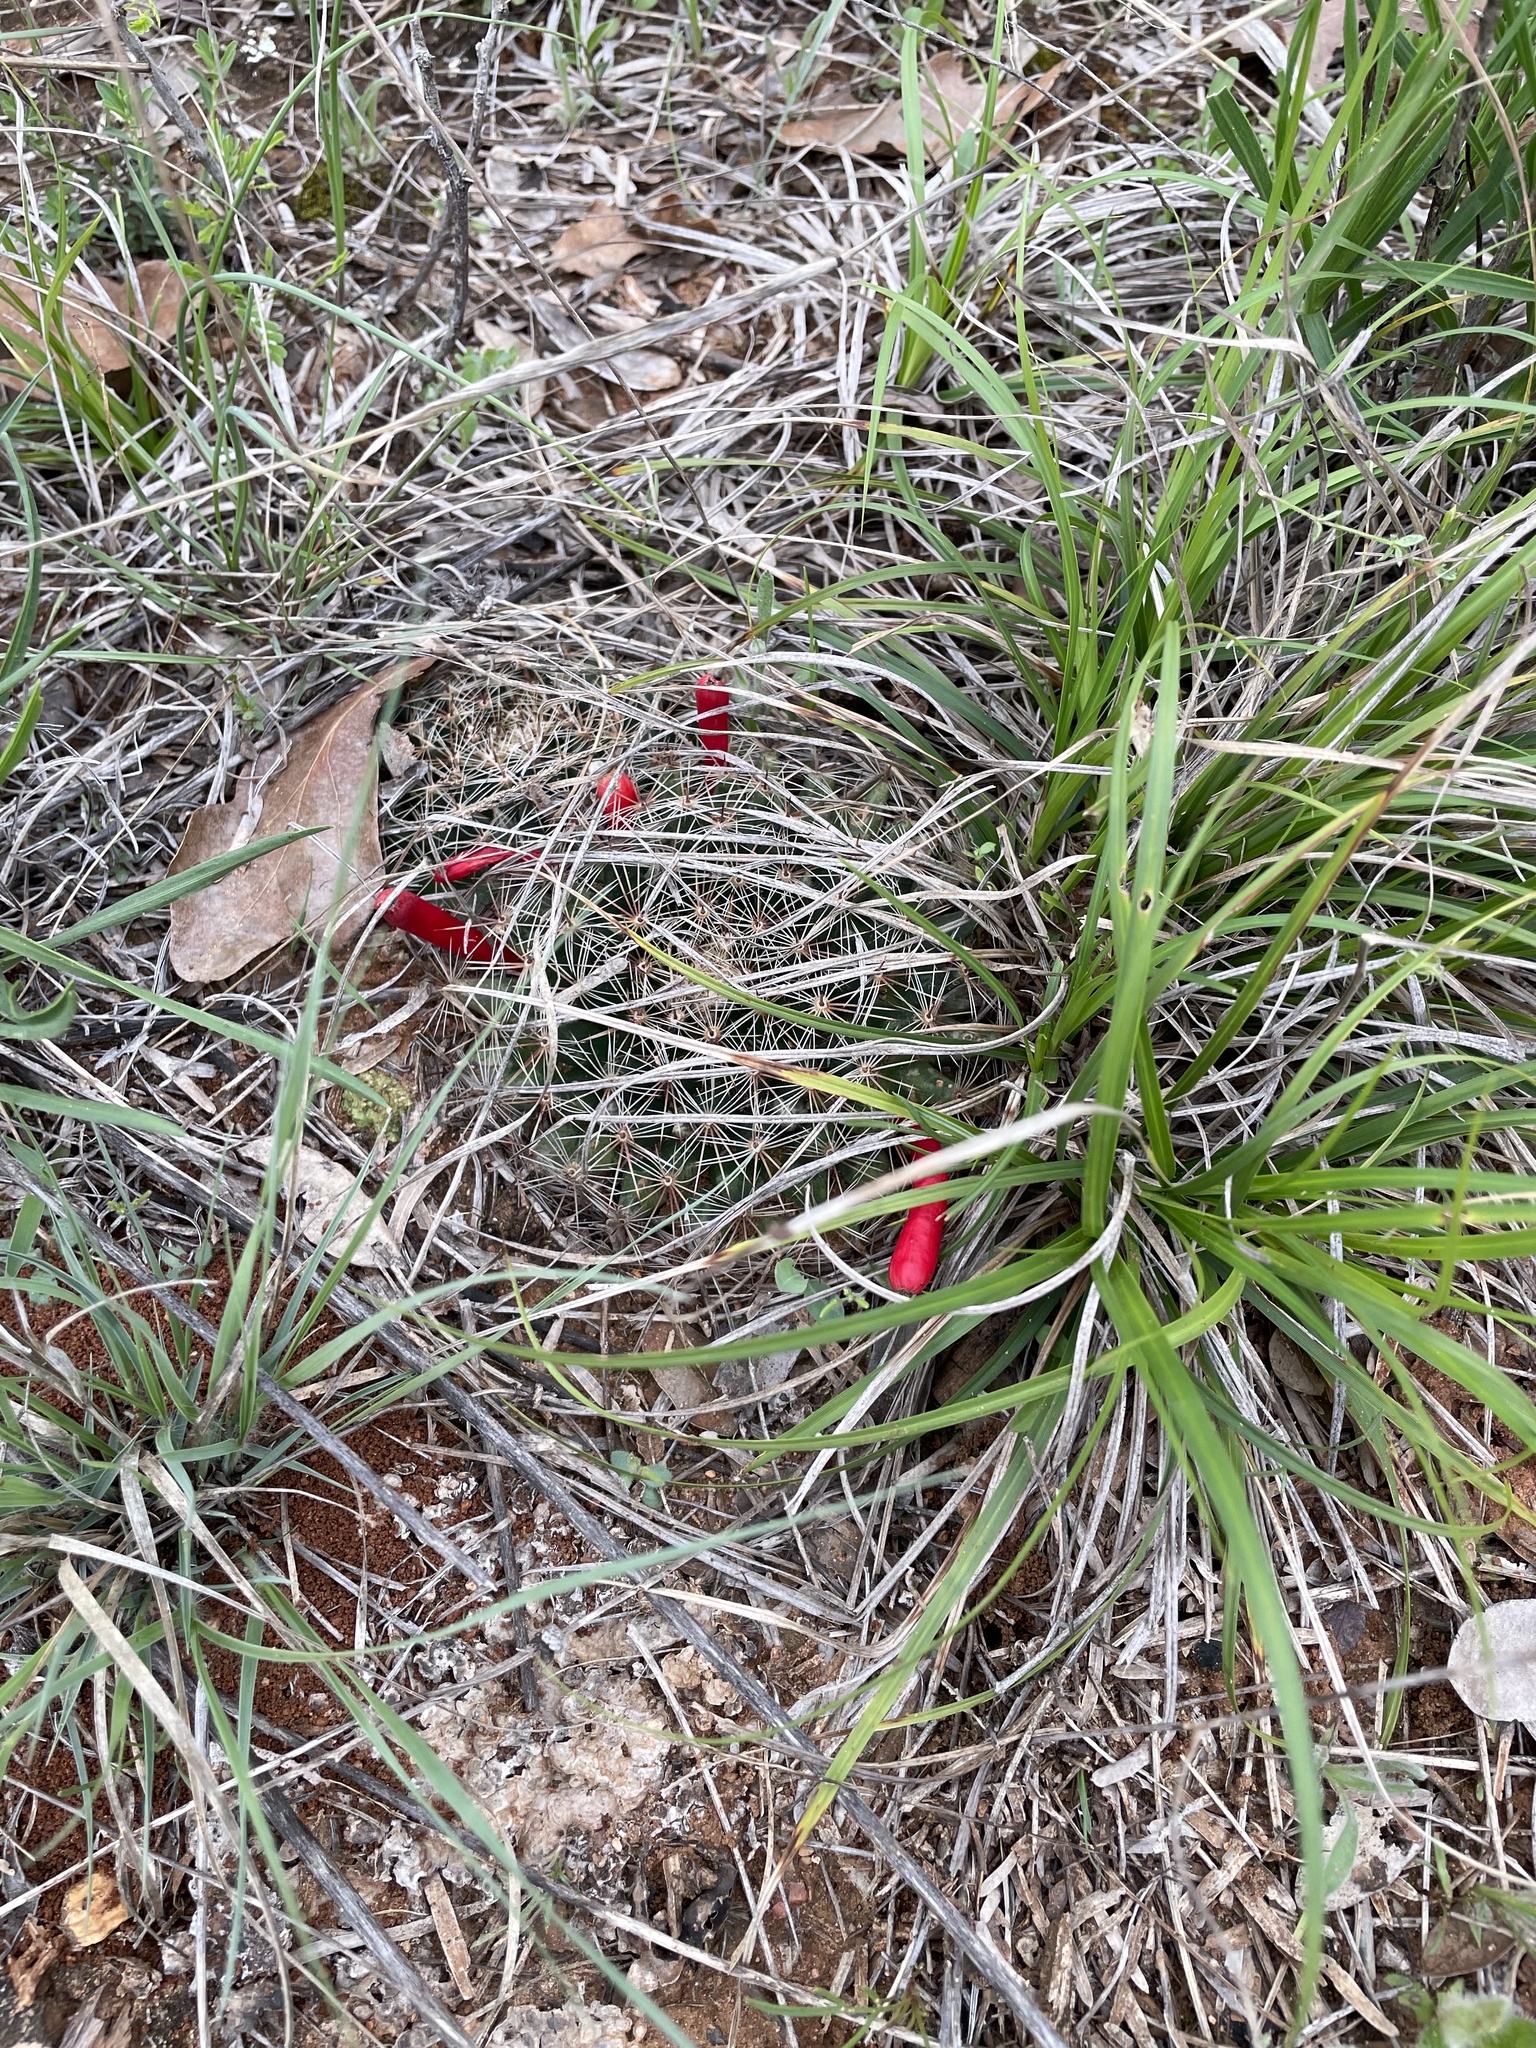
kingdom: Plantae
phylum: Tracheophyta
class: Magnoliopsida
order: Caryophyllales
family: Cactaceae
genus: Mammillaria
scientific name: Mammillaria heyderi
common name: Little nipple cactus
